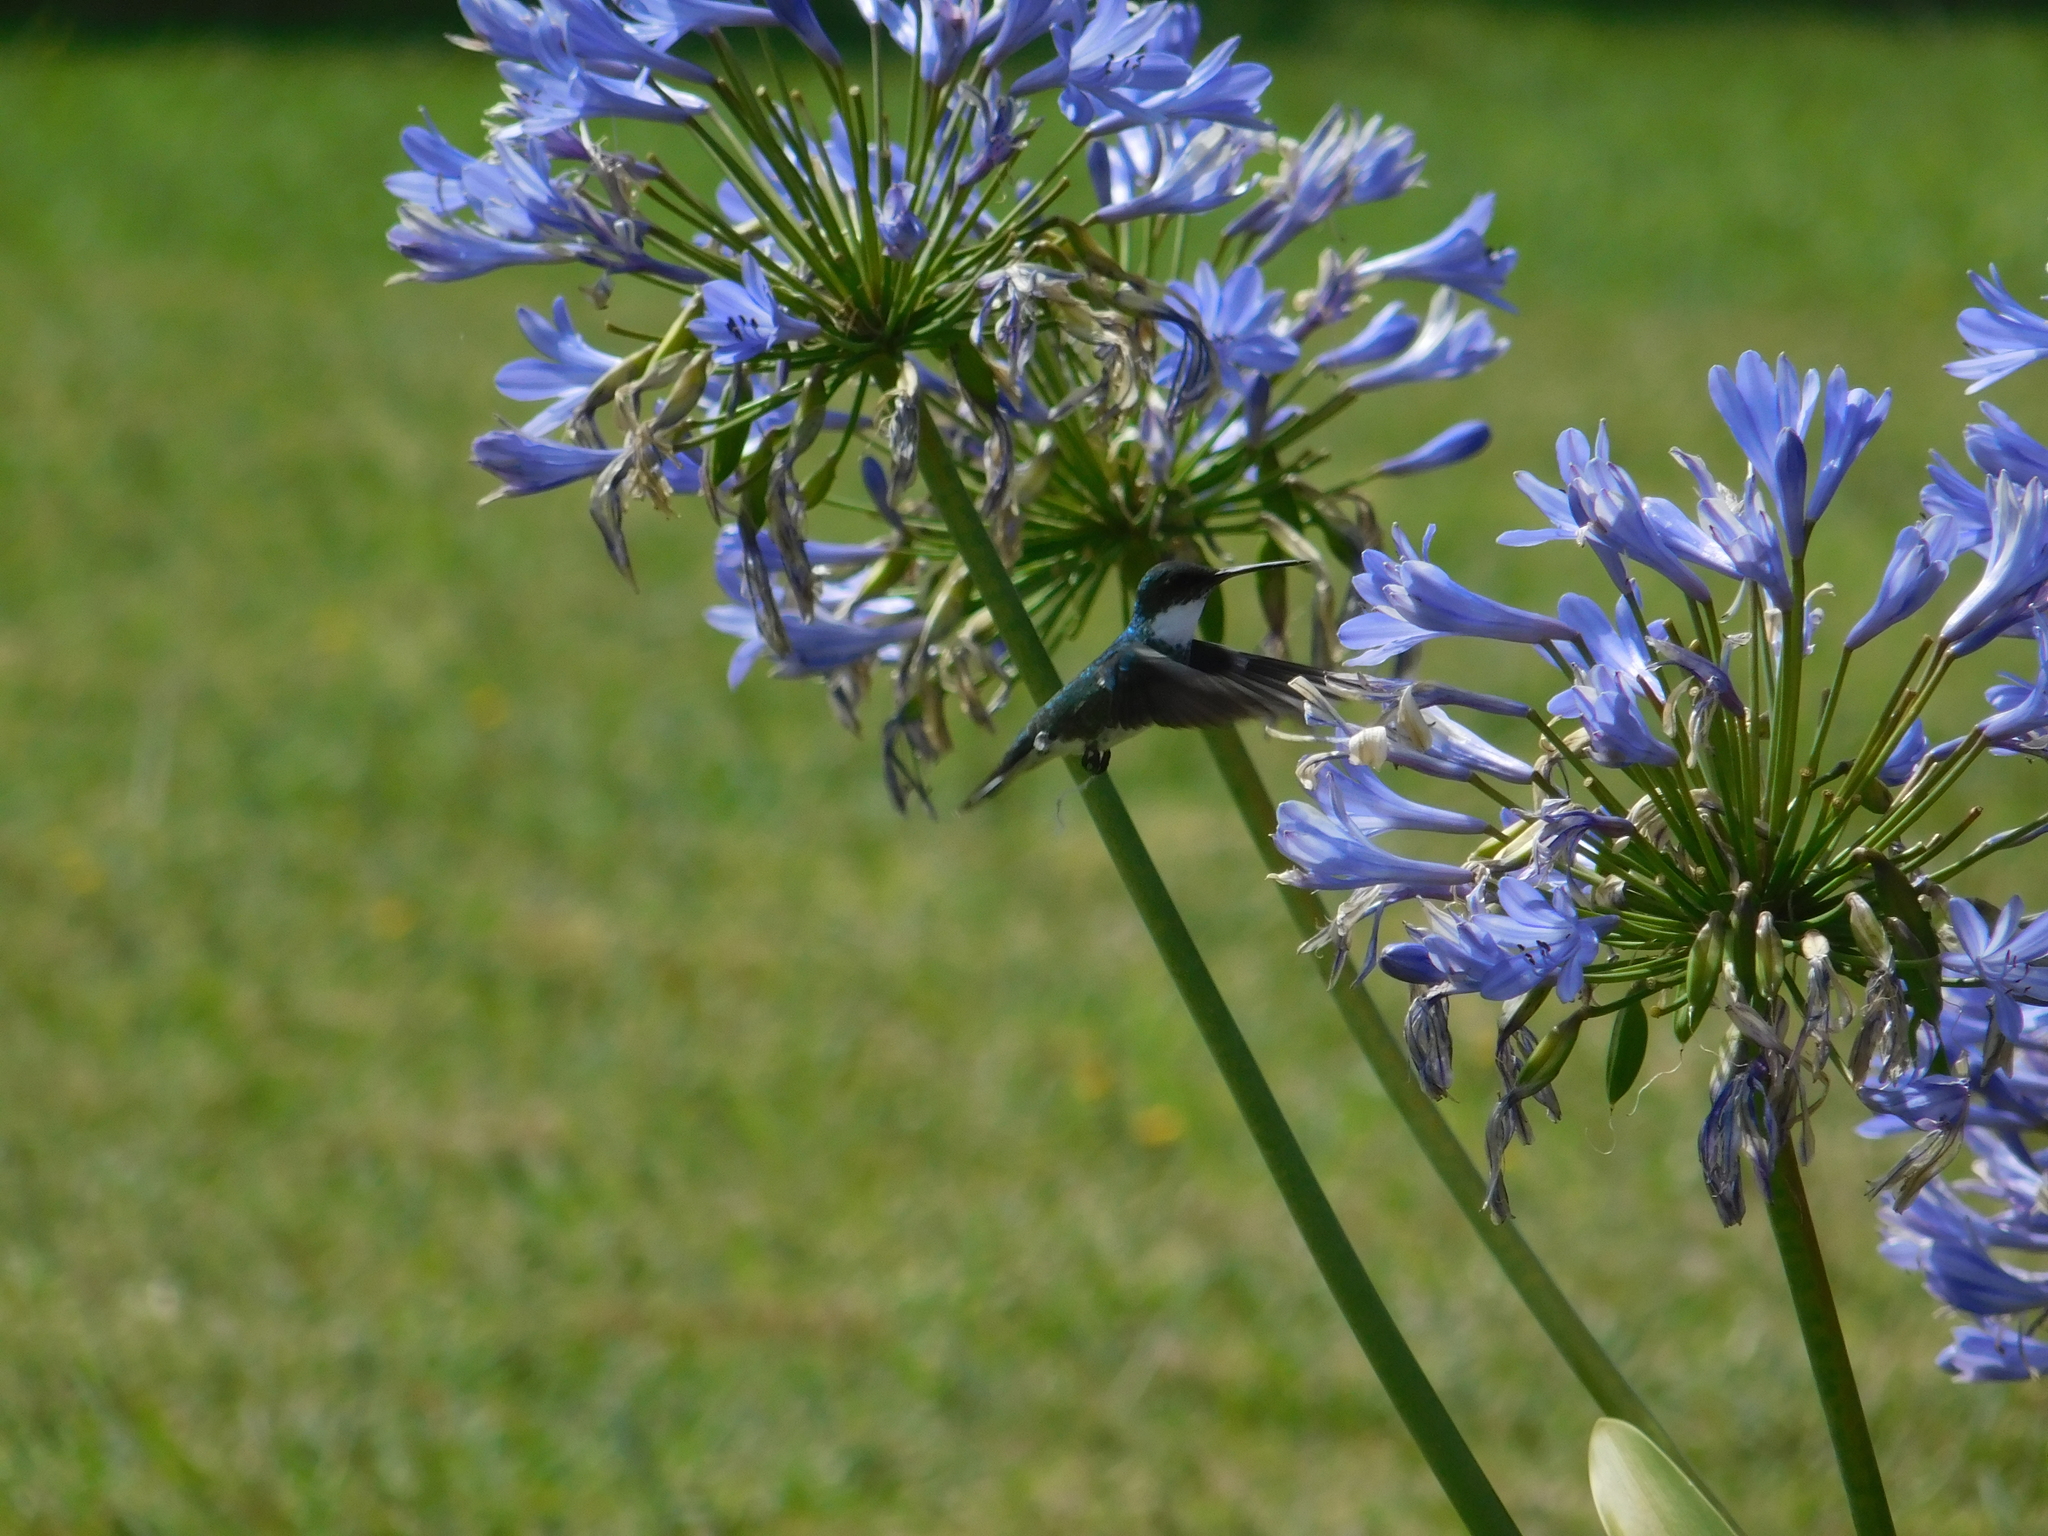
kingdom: Animalia
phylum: Chordata
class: Aves
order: Apodiformes
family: Trochilidae
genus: Leucochloris
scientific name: Leucochloris albicollis
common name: White-throated hummingbird
